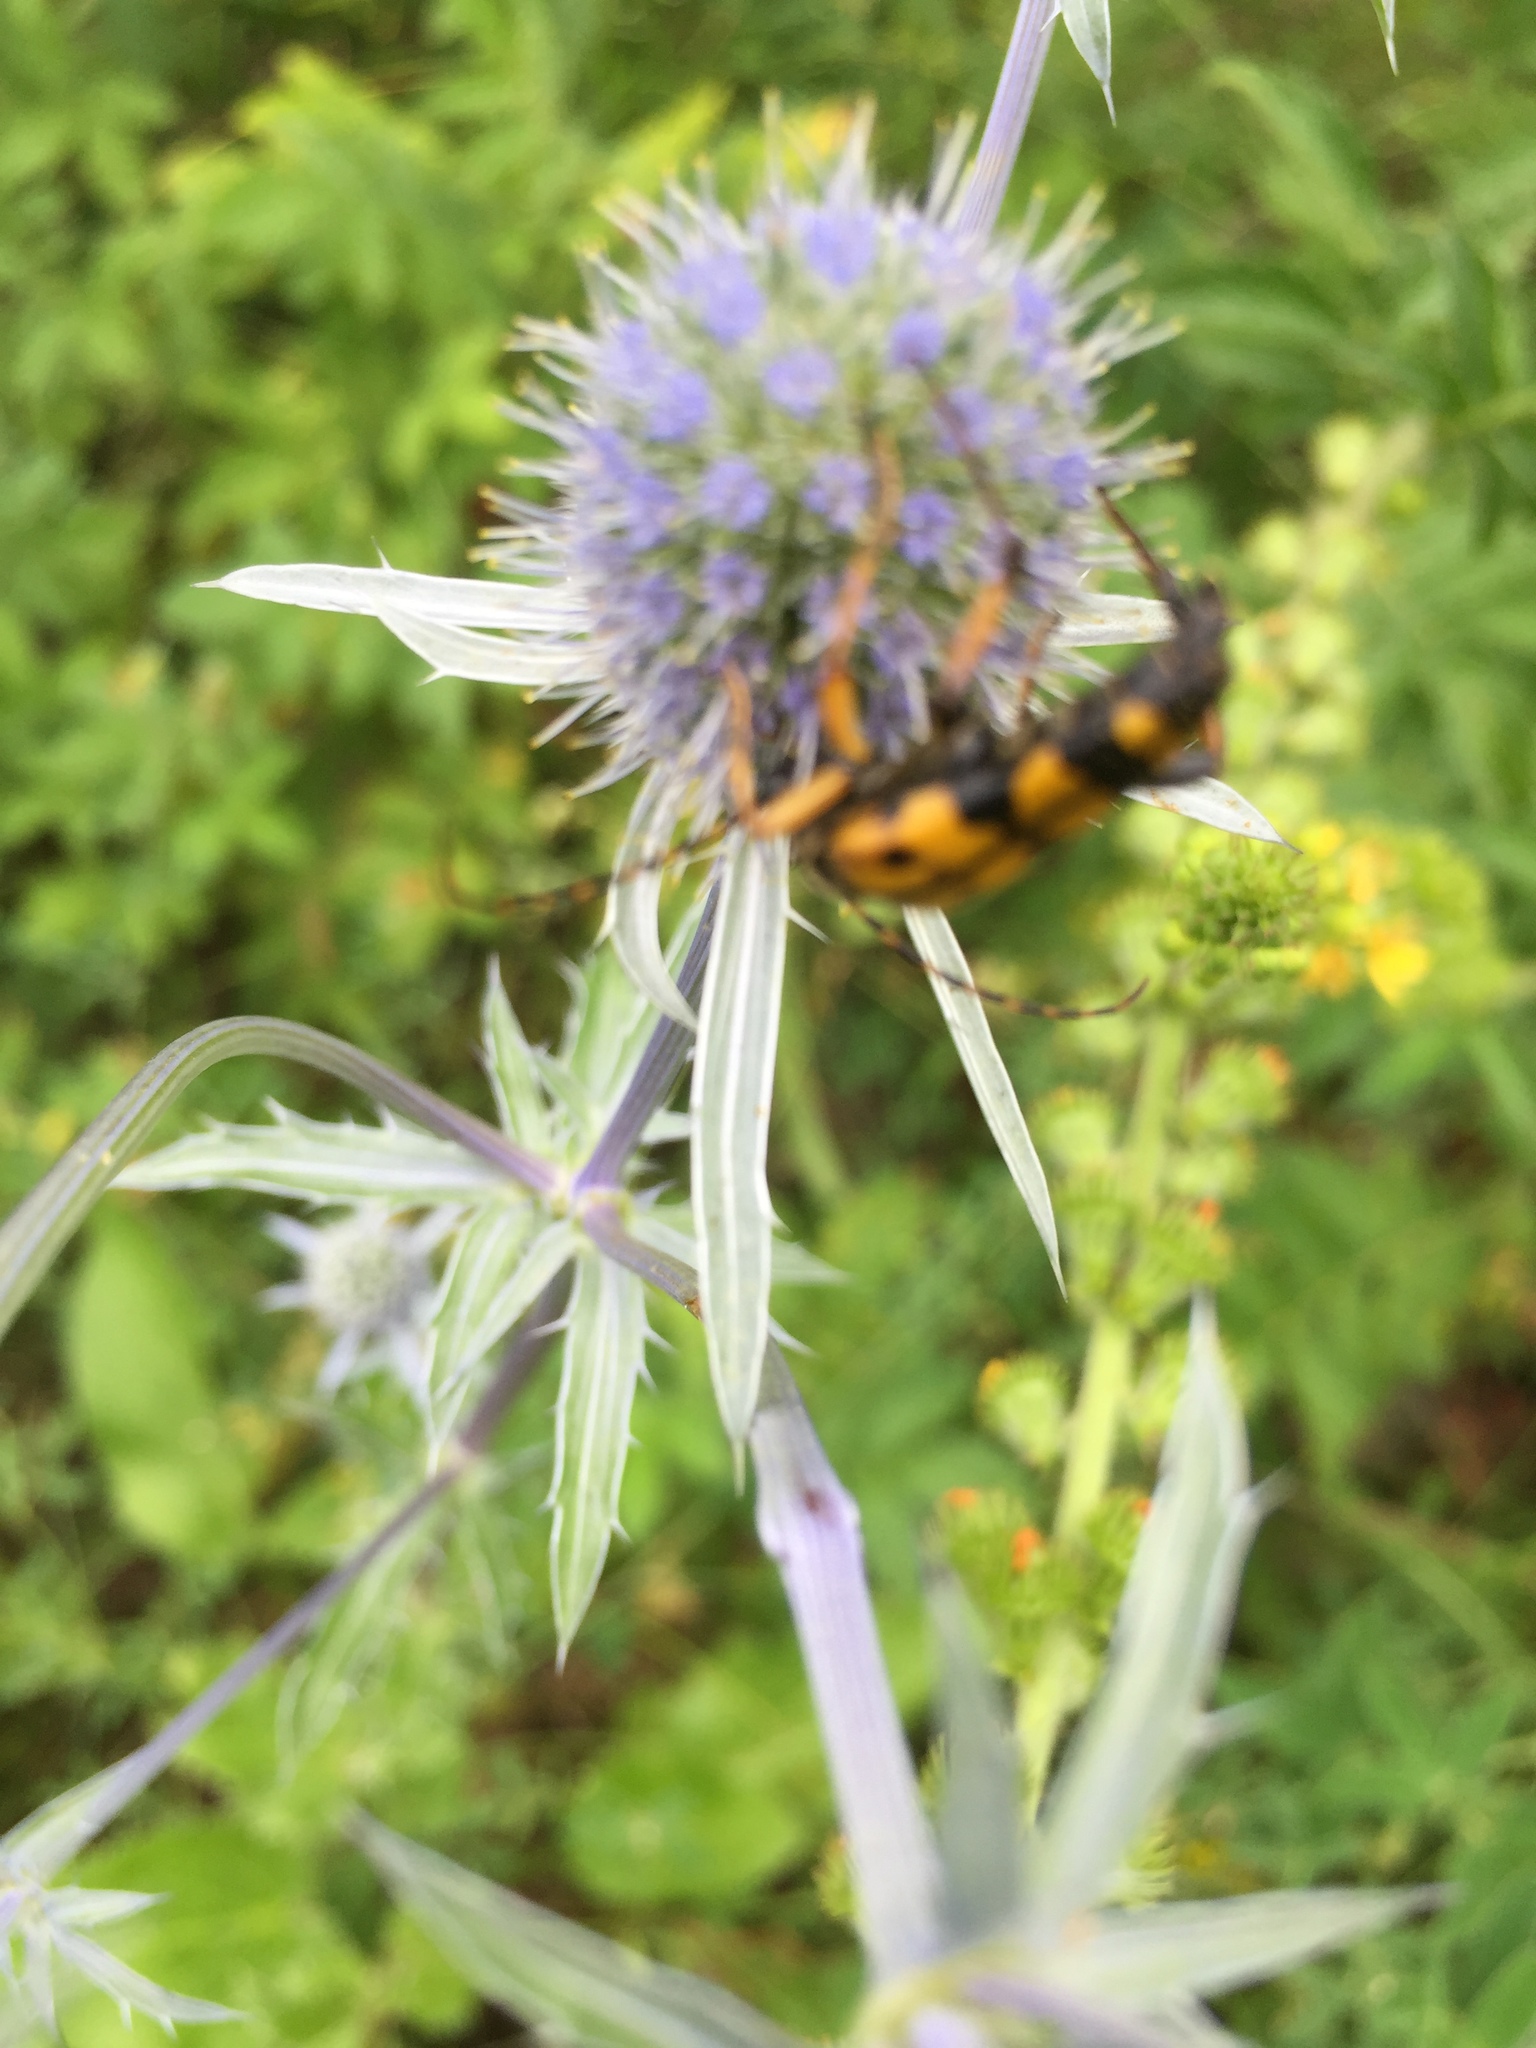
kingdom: Animalia
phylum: Arthropoda
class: Insecta
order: Coleoptera
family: Cerambycidae
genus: Rutpela
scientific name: Rutpela maculata
